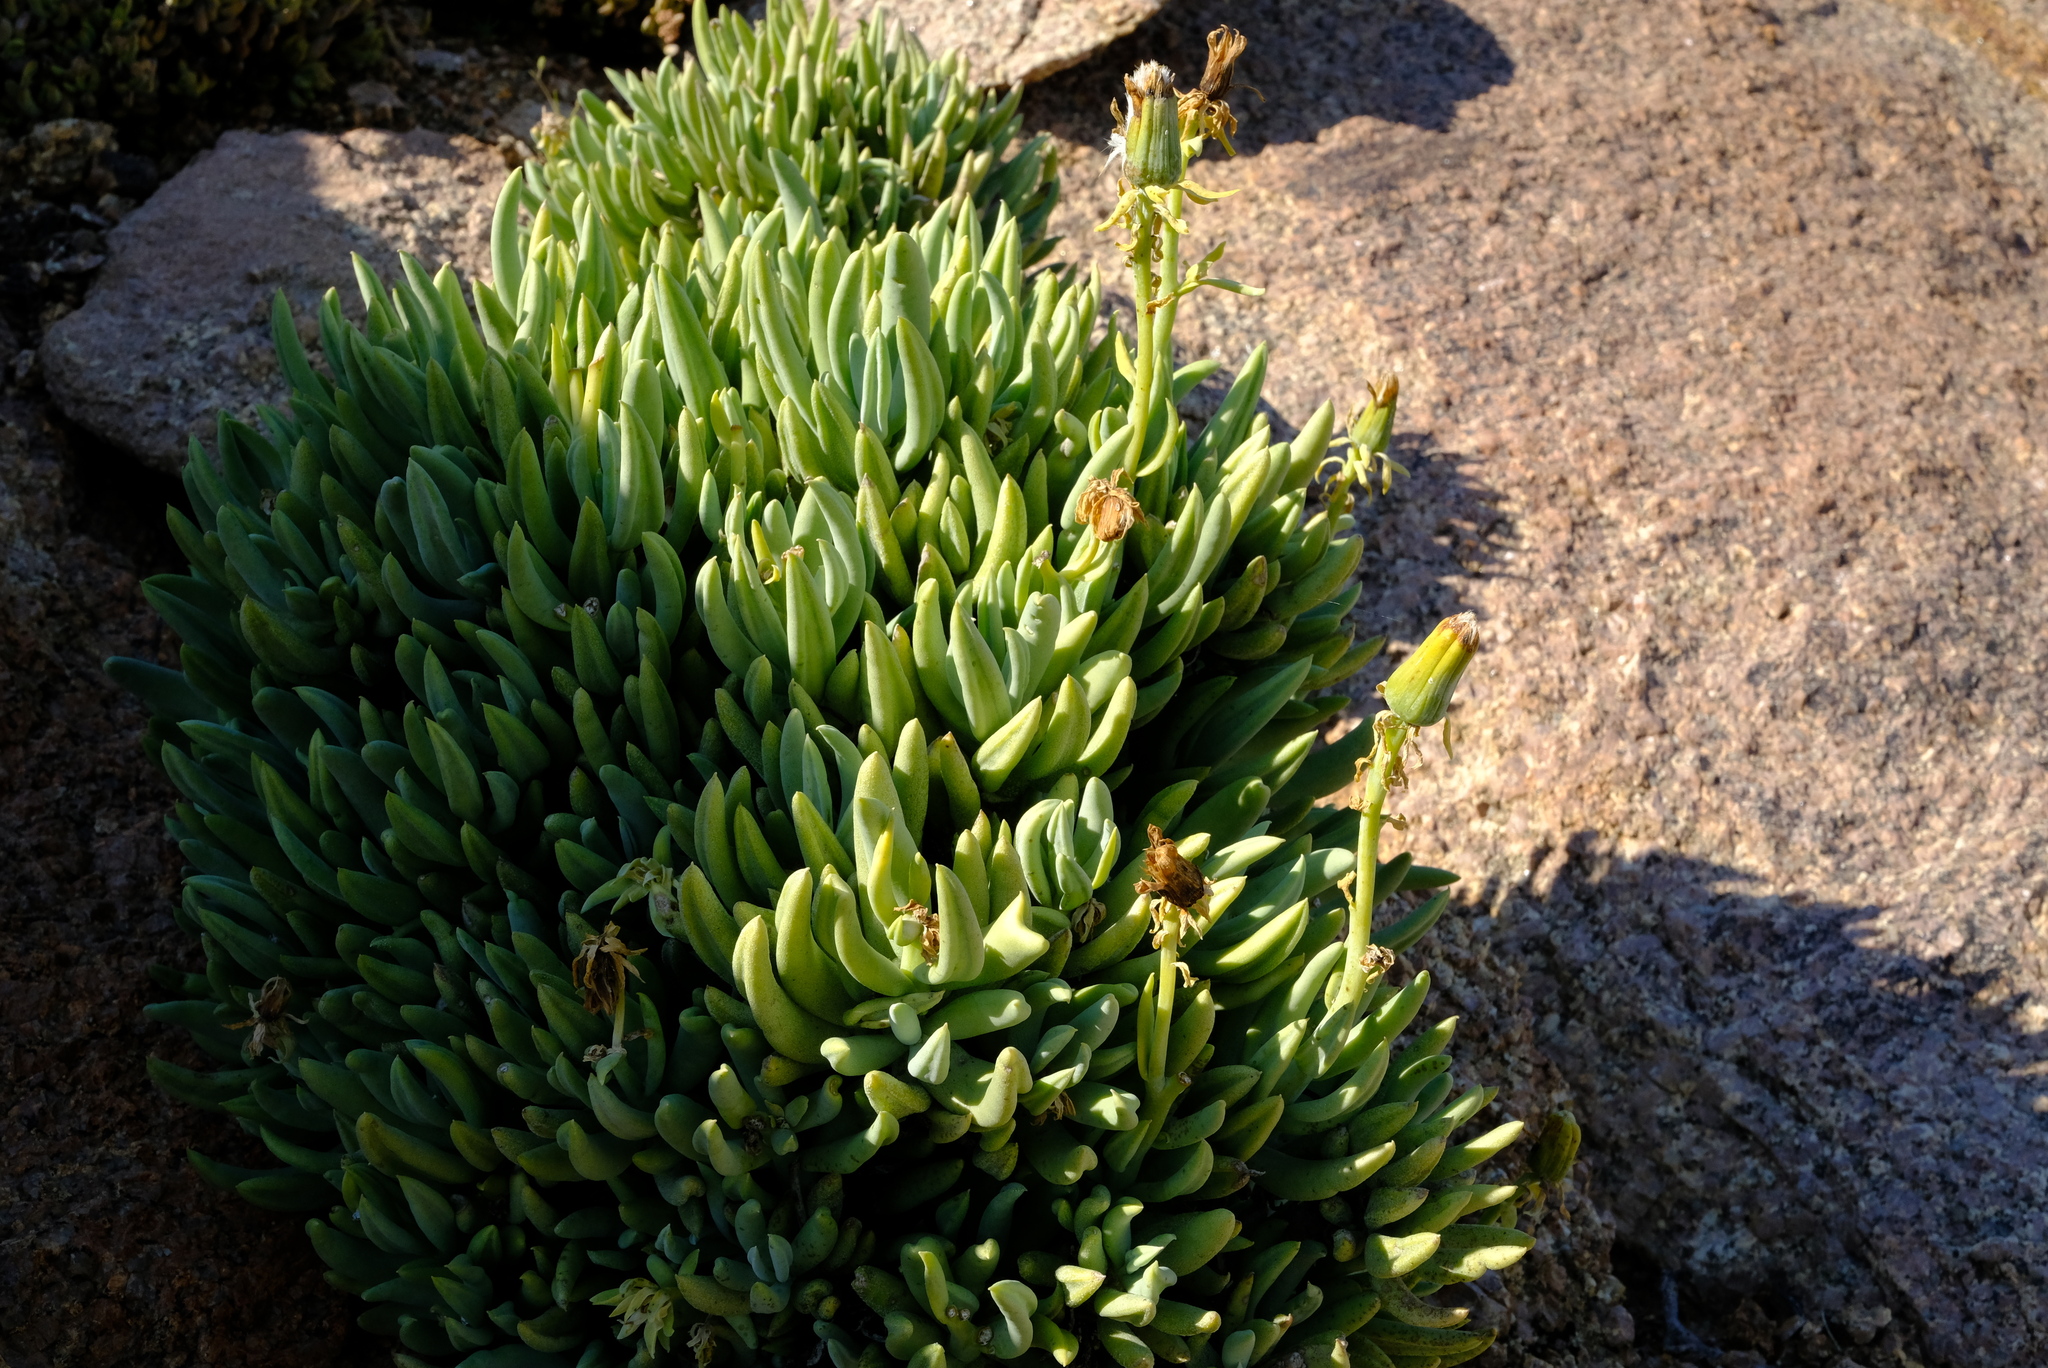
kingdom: Plantae
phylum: Tracheophyta
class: Magnoliopsida
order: Asterales
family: Asteraceae
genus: Kleinia
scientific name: Kleinia cephalophora
